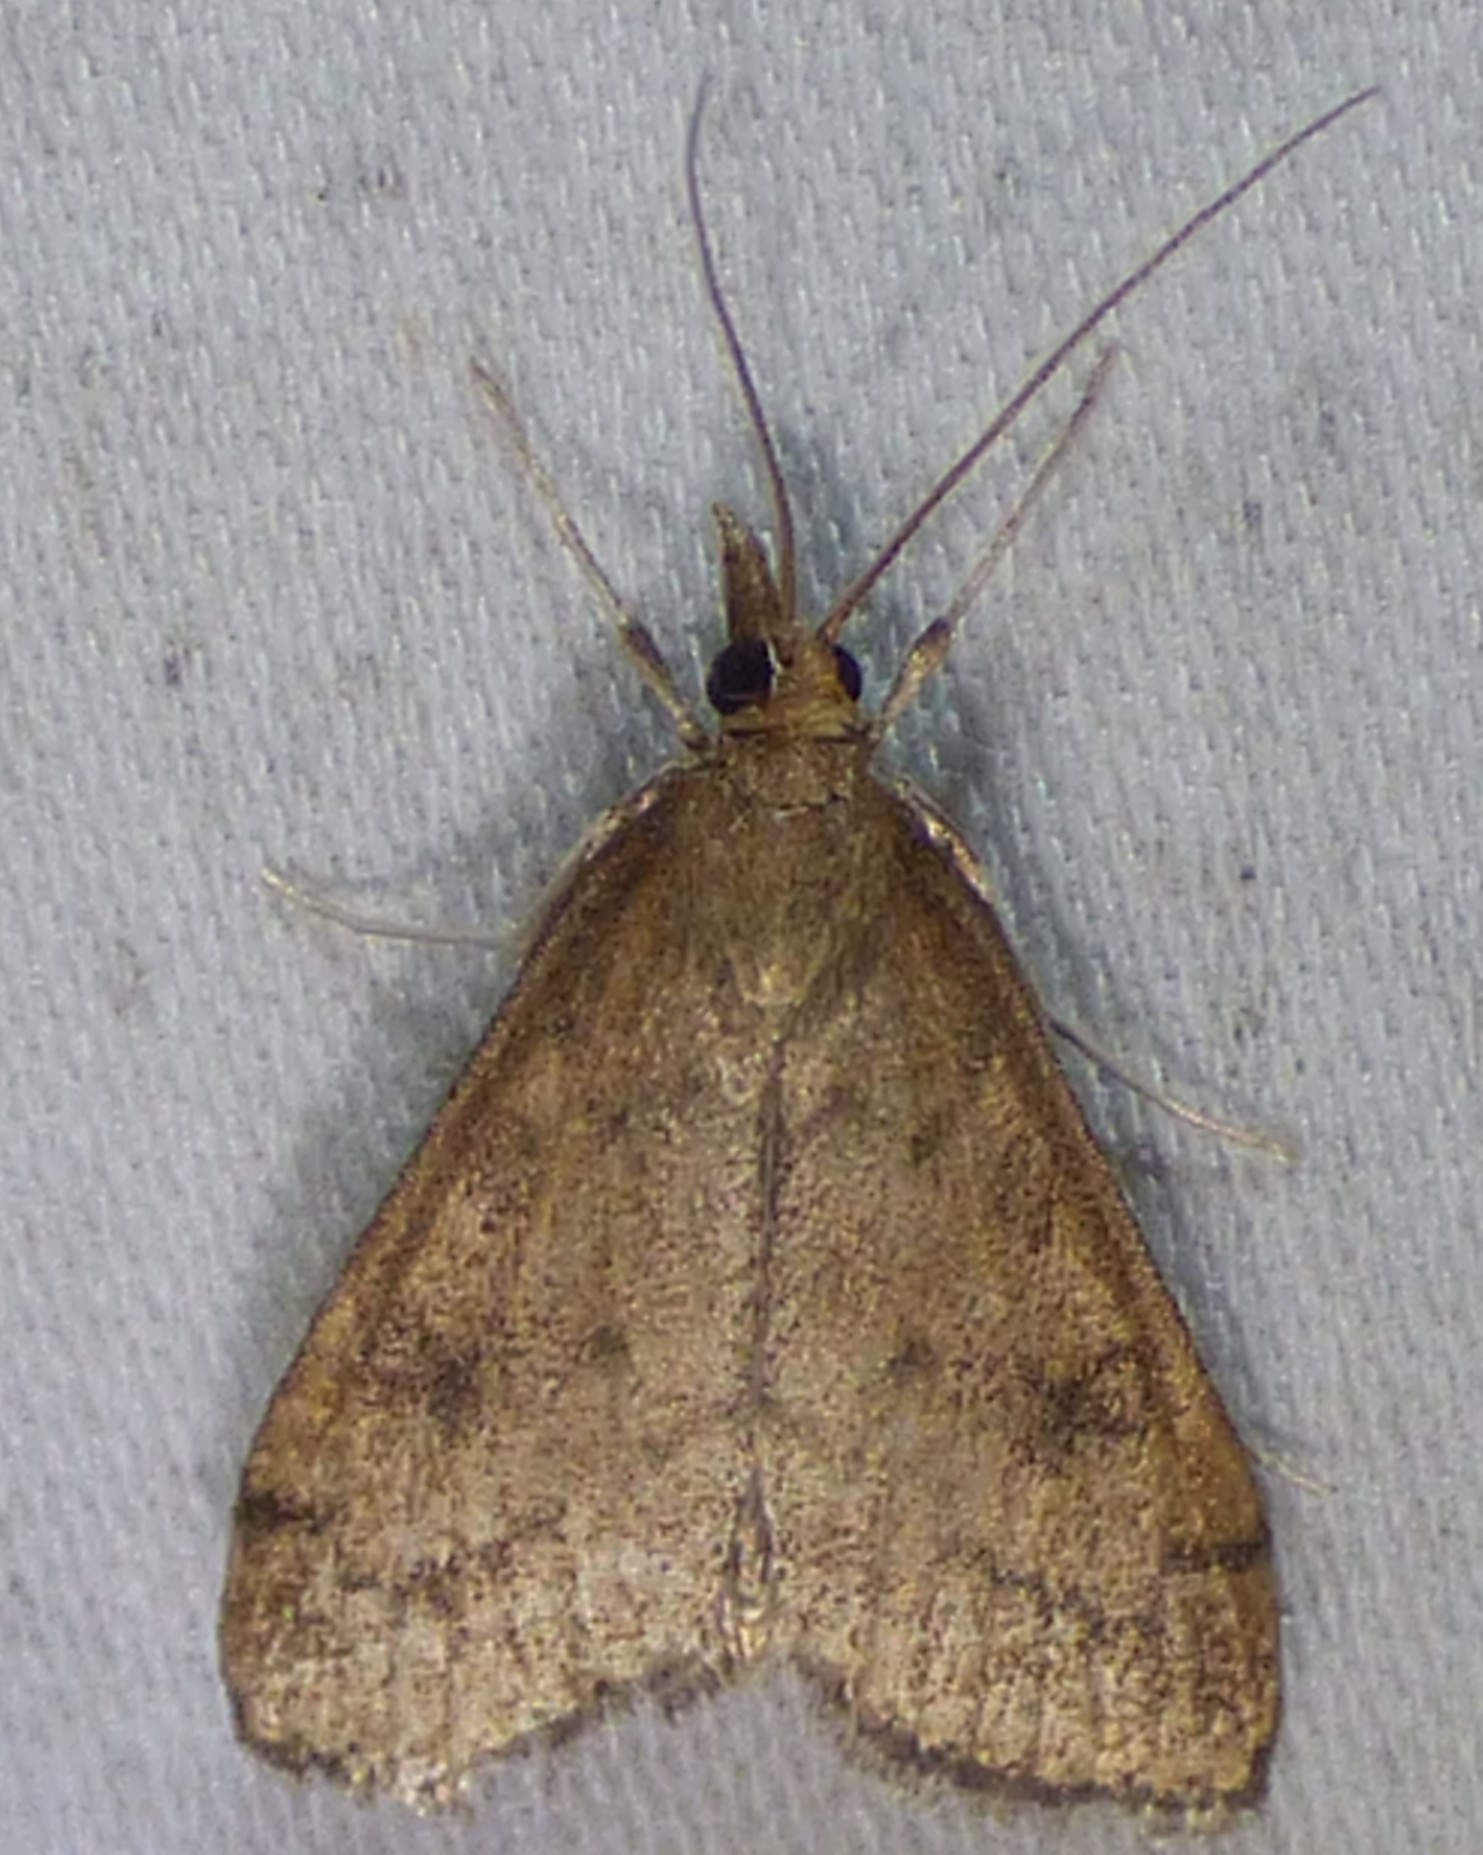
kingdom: Animalia
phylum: Arthropoda
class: Insecta
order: Lepidoptera
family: Crambidae
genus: Udea
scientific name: Udea rubigalis
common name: Celery leaftier moth
